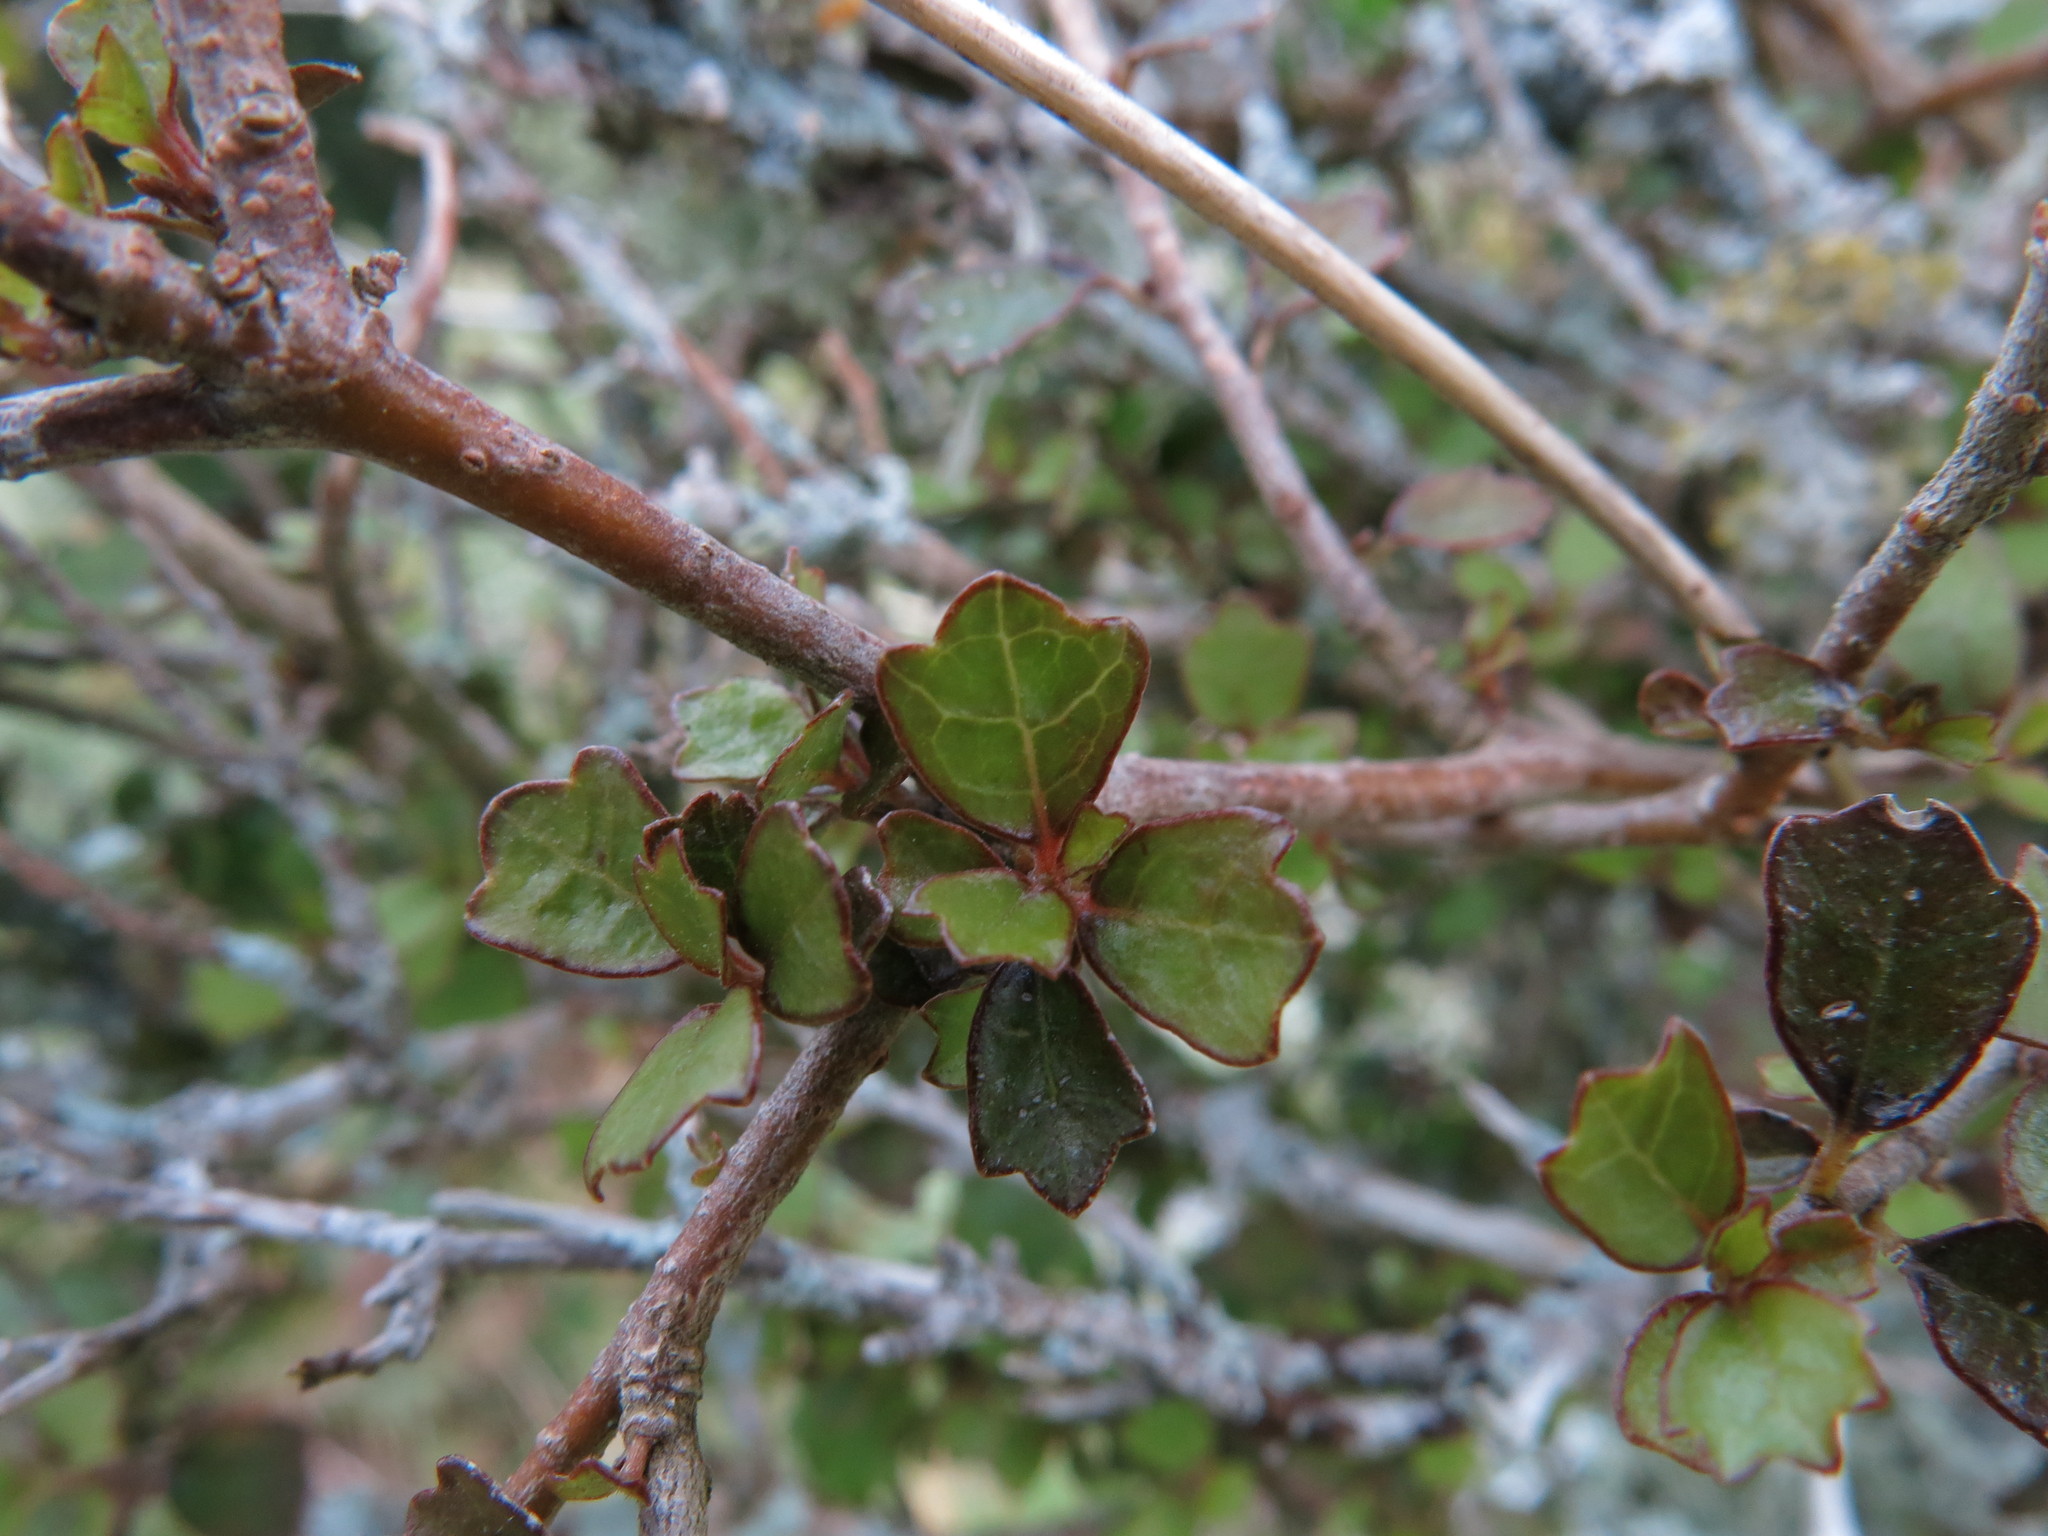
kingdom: Plantae
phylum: Tracheophyta
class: Magnoliopsida
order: Apiales
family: Pennantiaceae
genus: Pennantia
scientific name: Pennantia corymbosa
